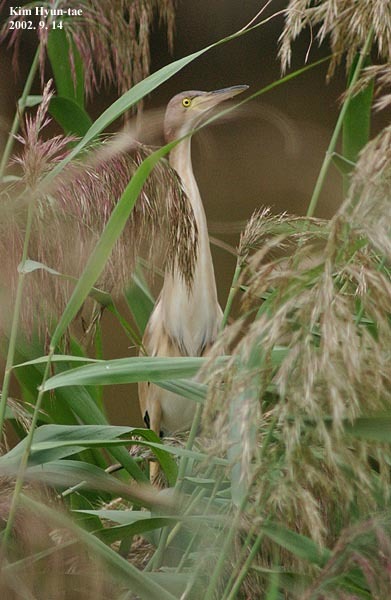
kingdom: Animalia
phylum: Chordata
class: Aves
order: Pelecaniformes
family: Ardeidae
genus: Ixobrychus
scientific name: Ixobrychus sinensis
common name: Yellow bittern
